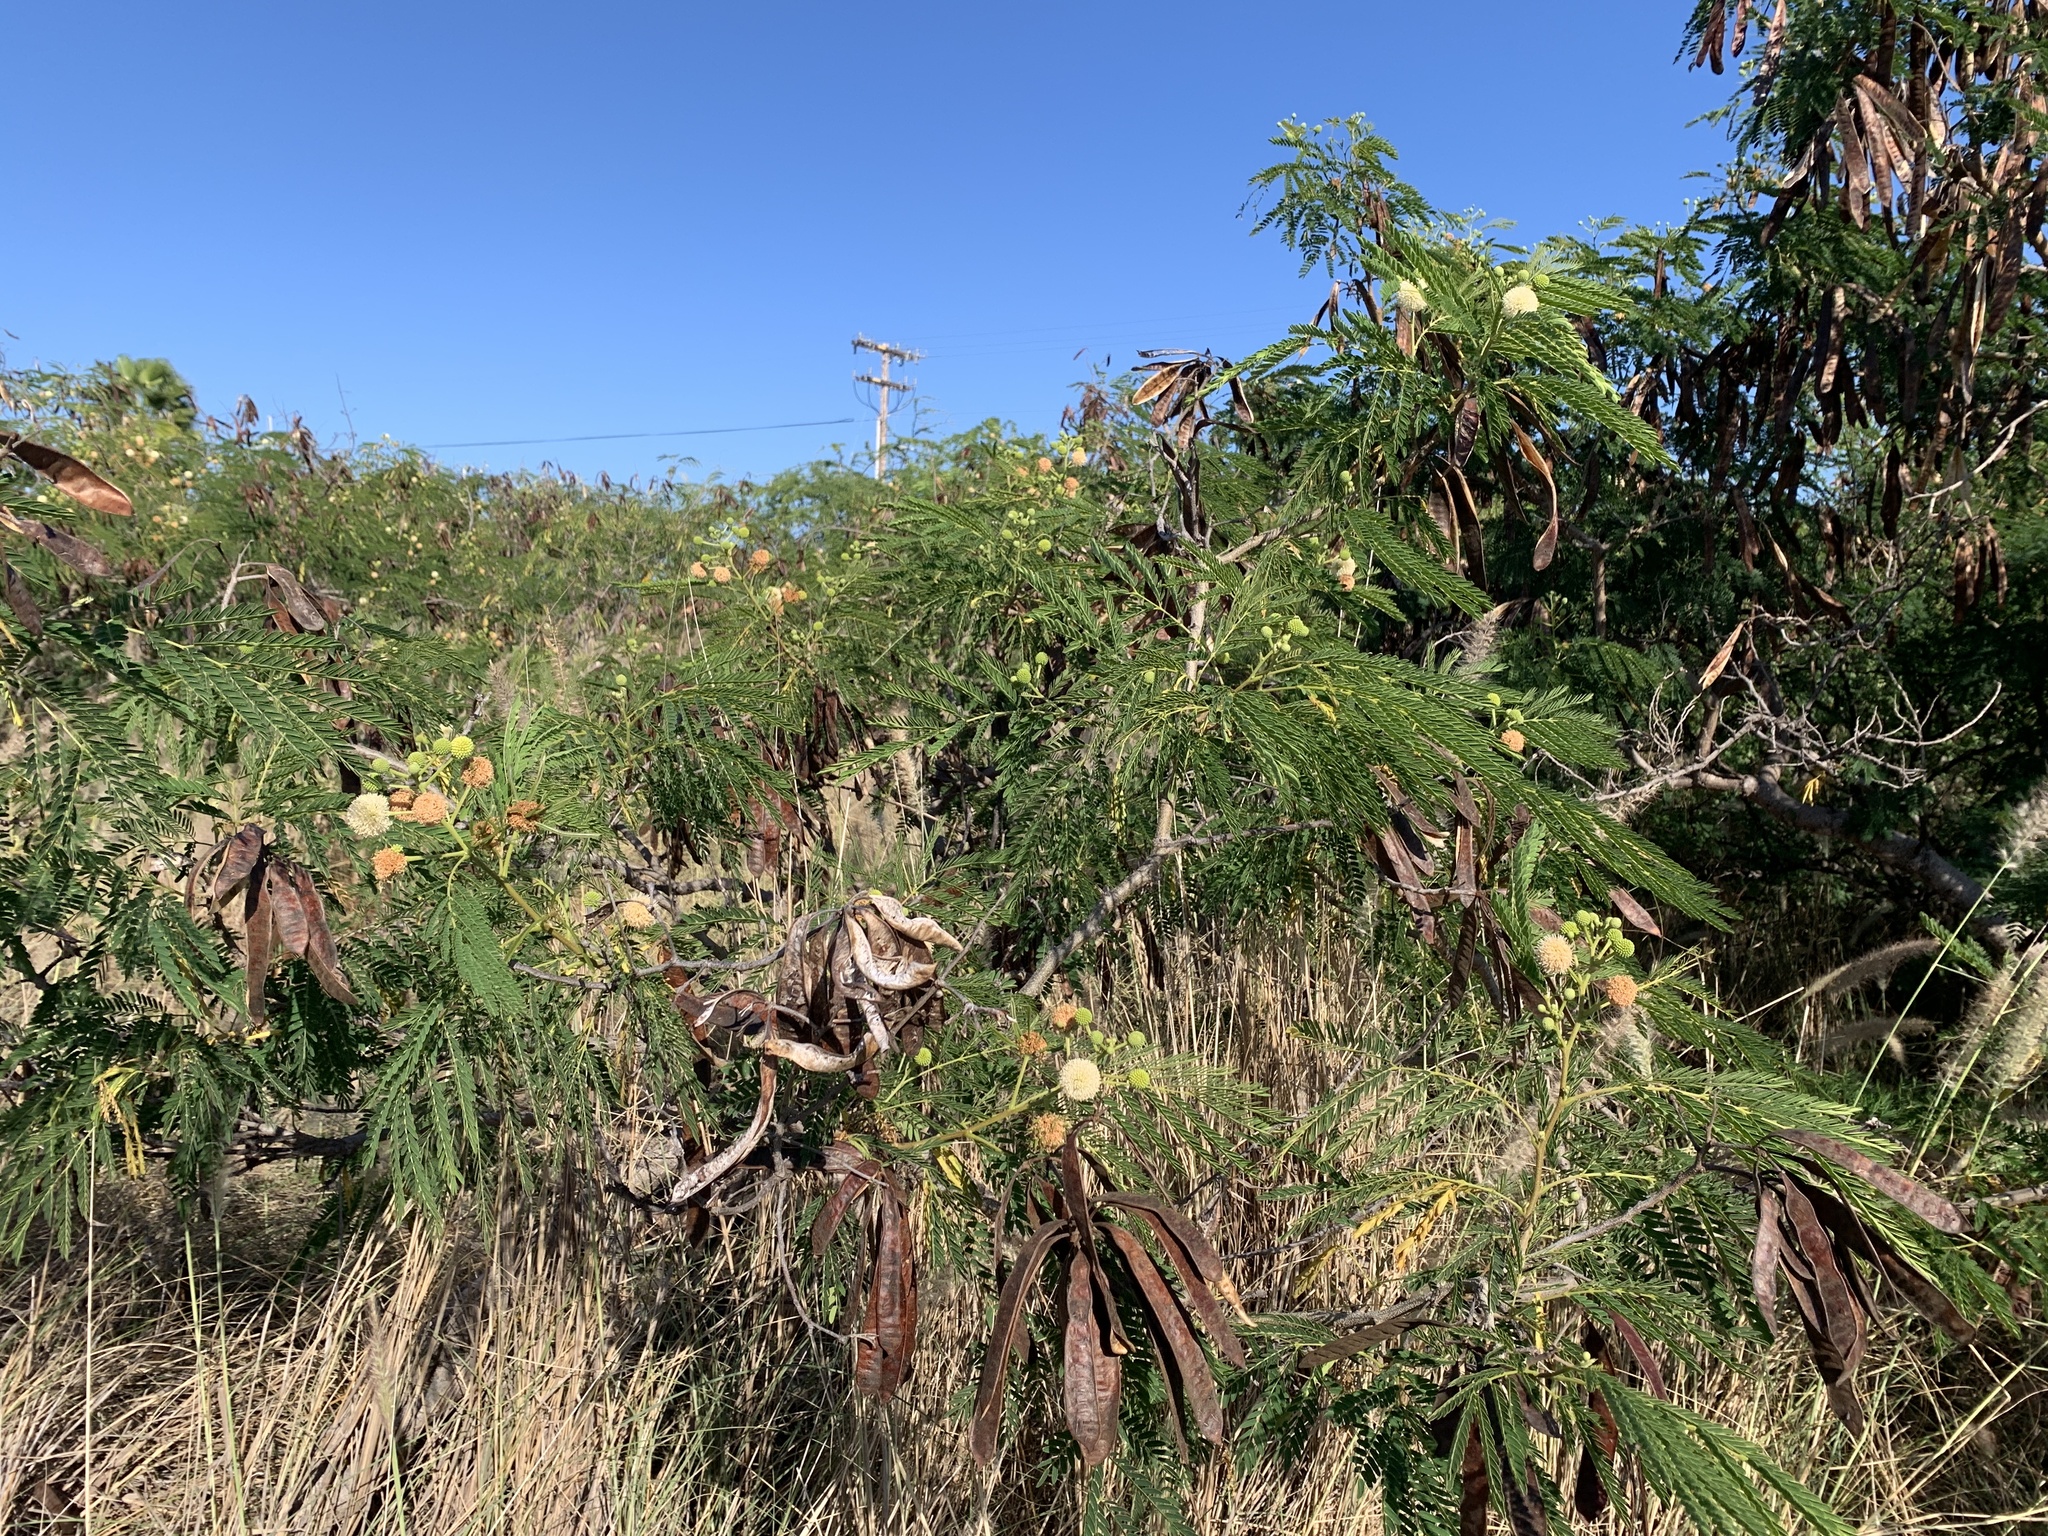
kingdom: Plantae
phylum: Tracheophyta
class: Magnoliopsida
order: Fabales
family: Fabaceae
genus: Leucaena
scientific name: Leucaena leucocephala
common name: White leadtree
